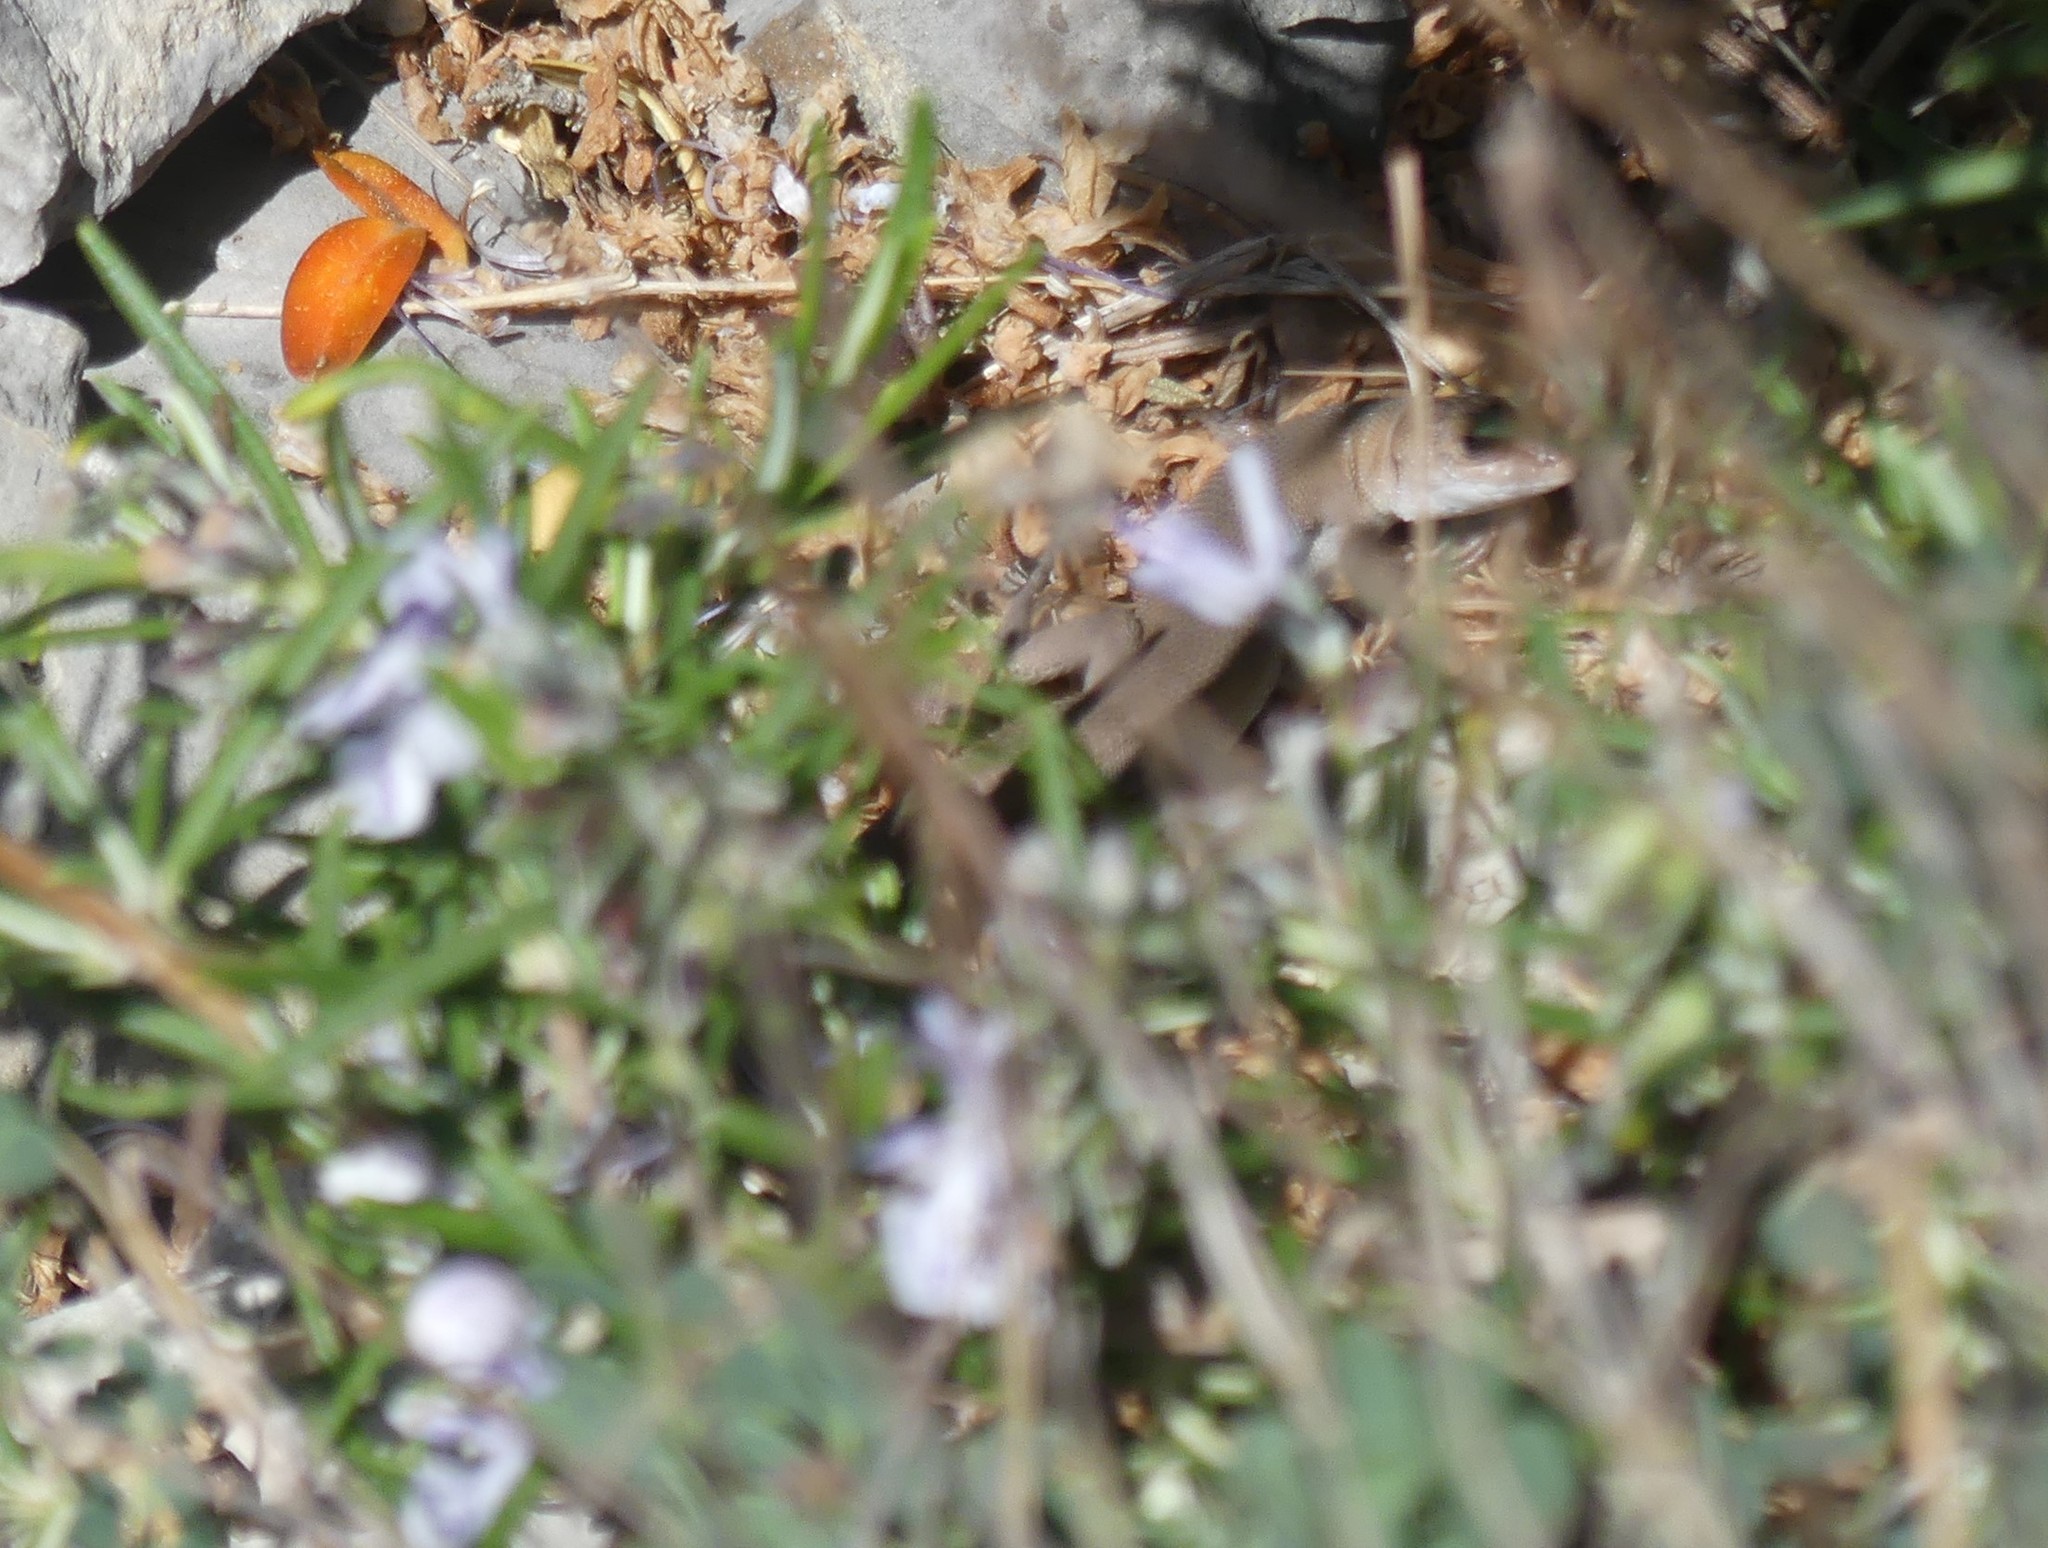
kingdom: Animalia
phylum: Chordata
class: Squamata
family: Lacertidae
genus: Psammodromus
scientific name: Psammodromus edwarsianus
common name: East iberian psammodromus
